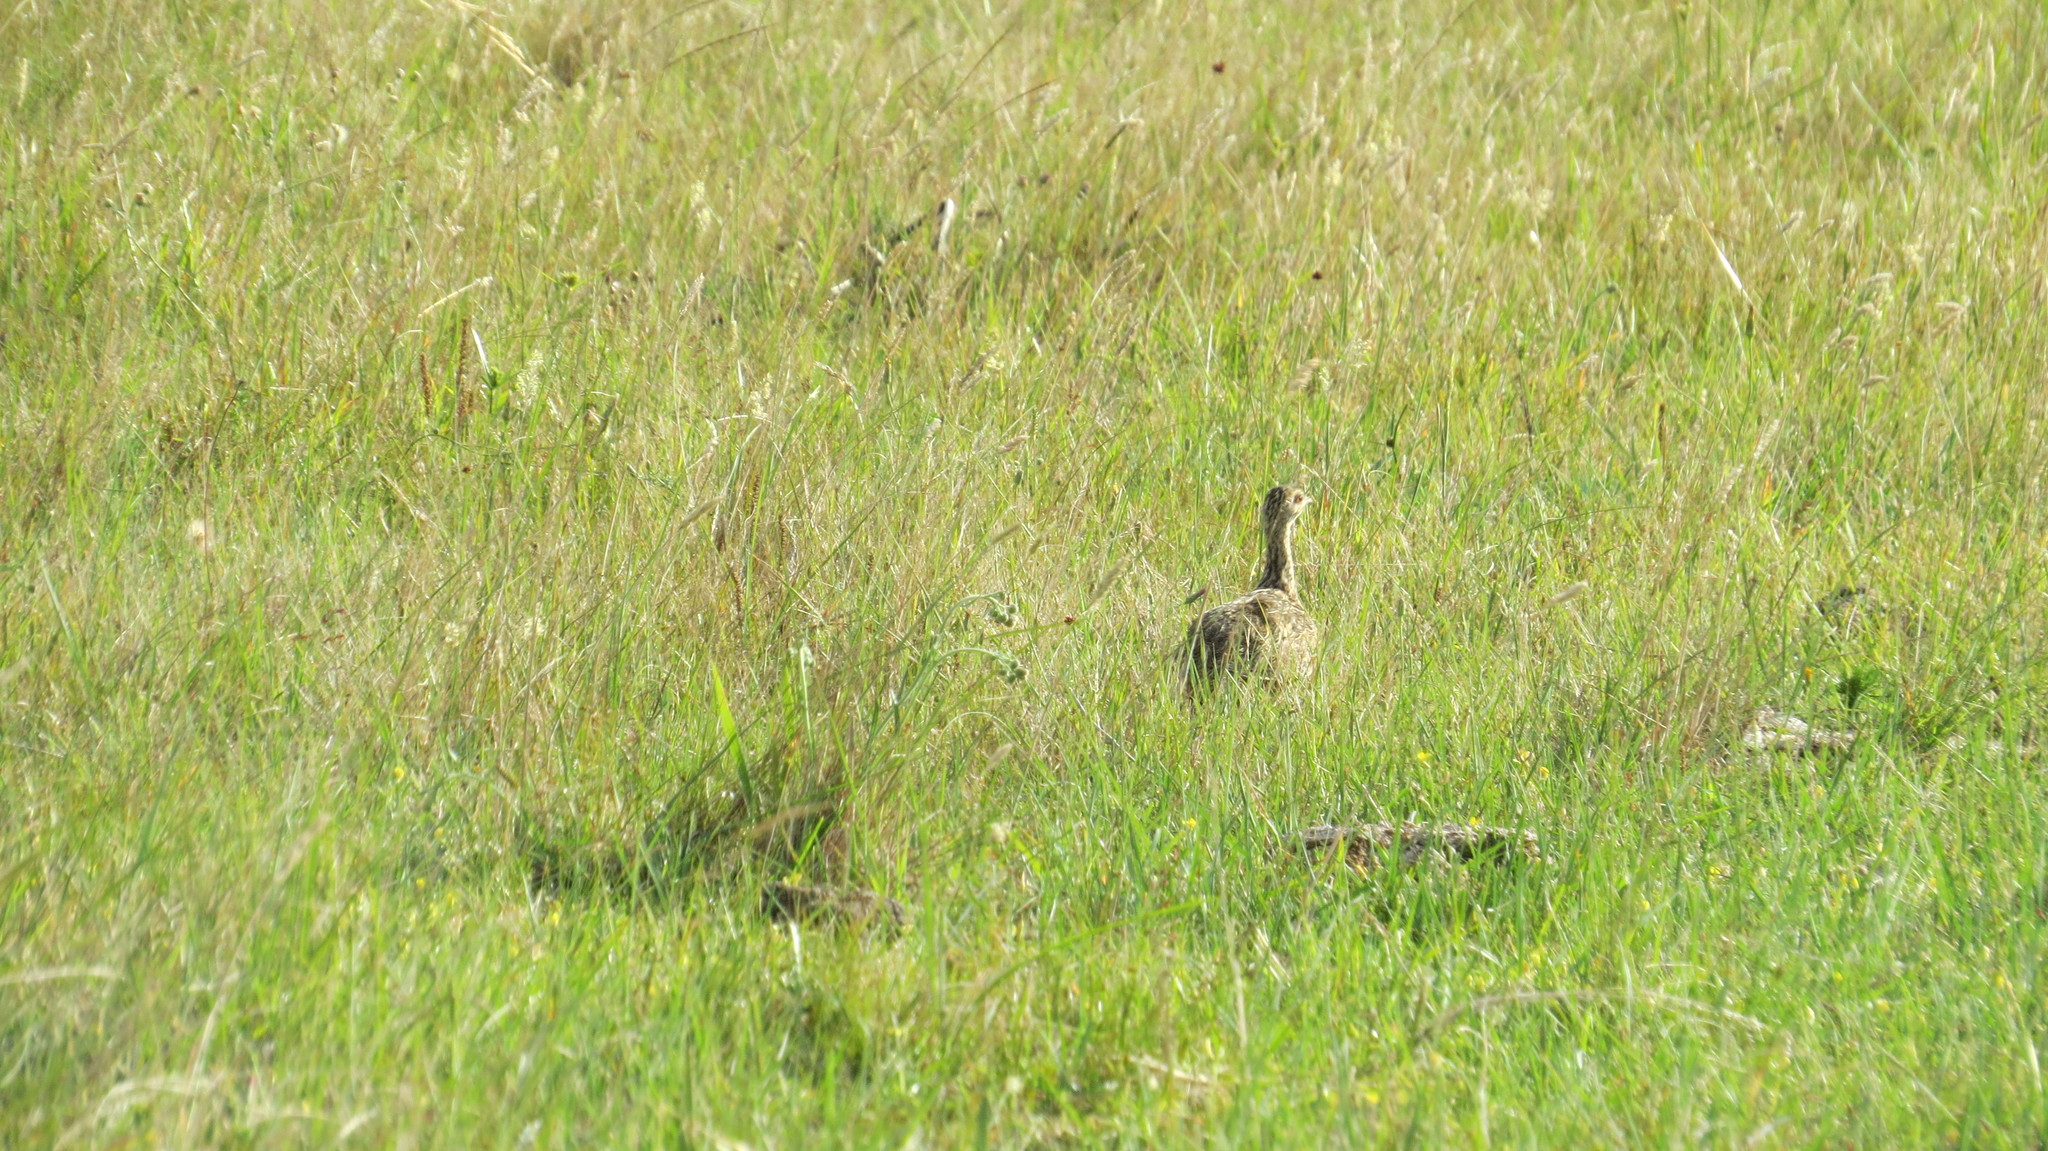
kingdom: Animalia
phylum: Chordata
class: Aves
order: Tinamiformes
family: Tinamidae
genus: Nothura
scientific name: Nothura maculosa
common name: Spotted nothura
